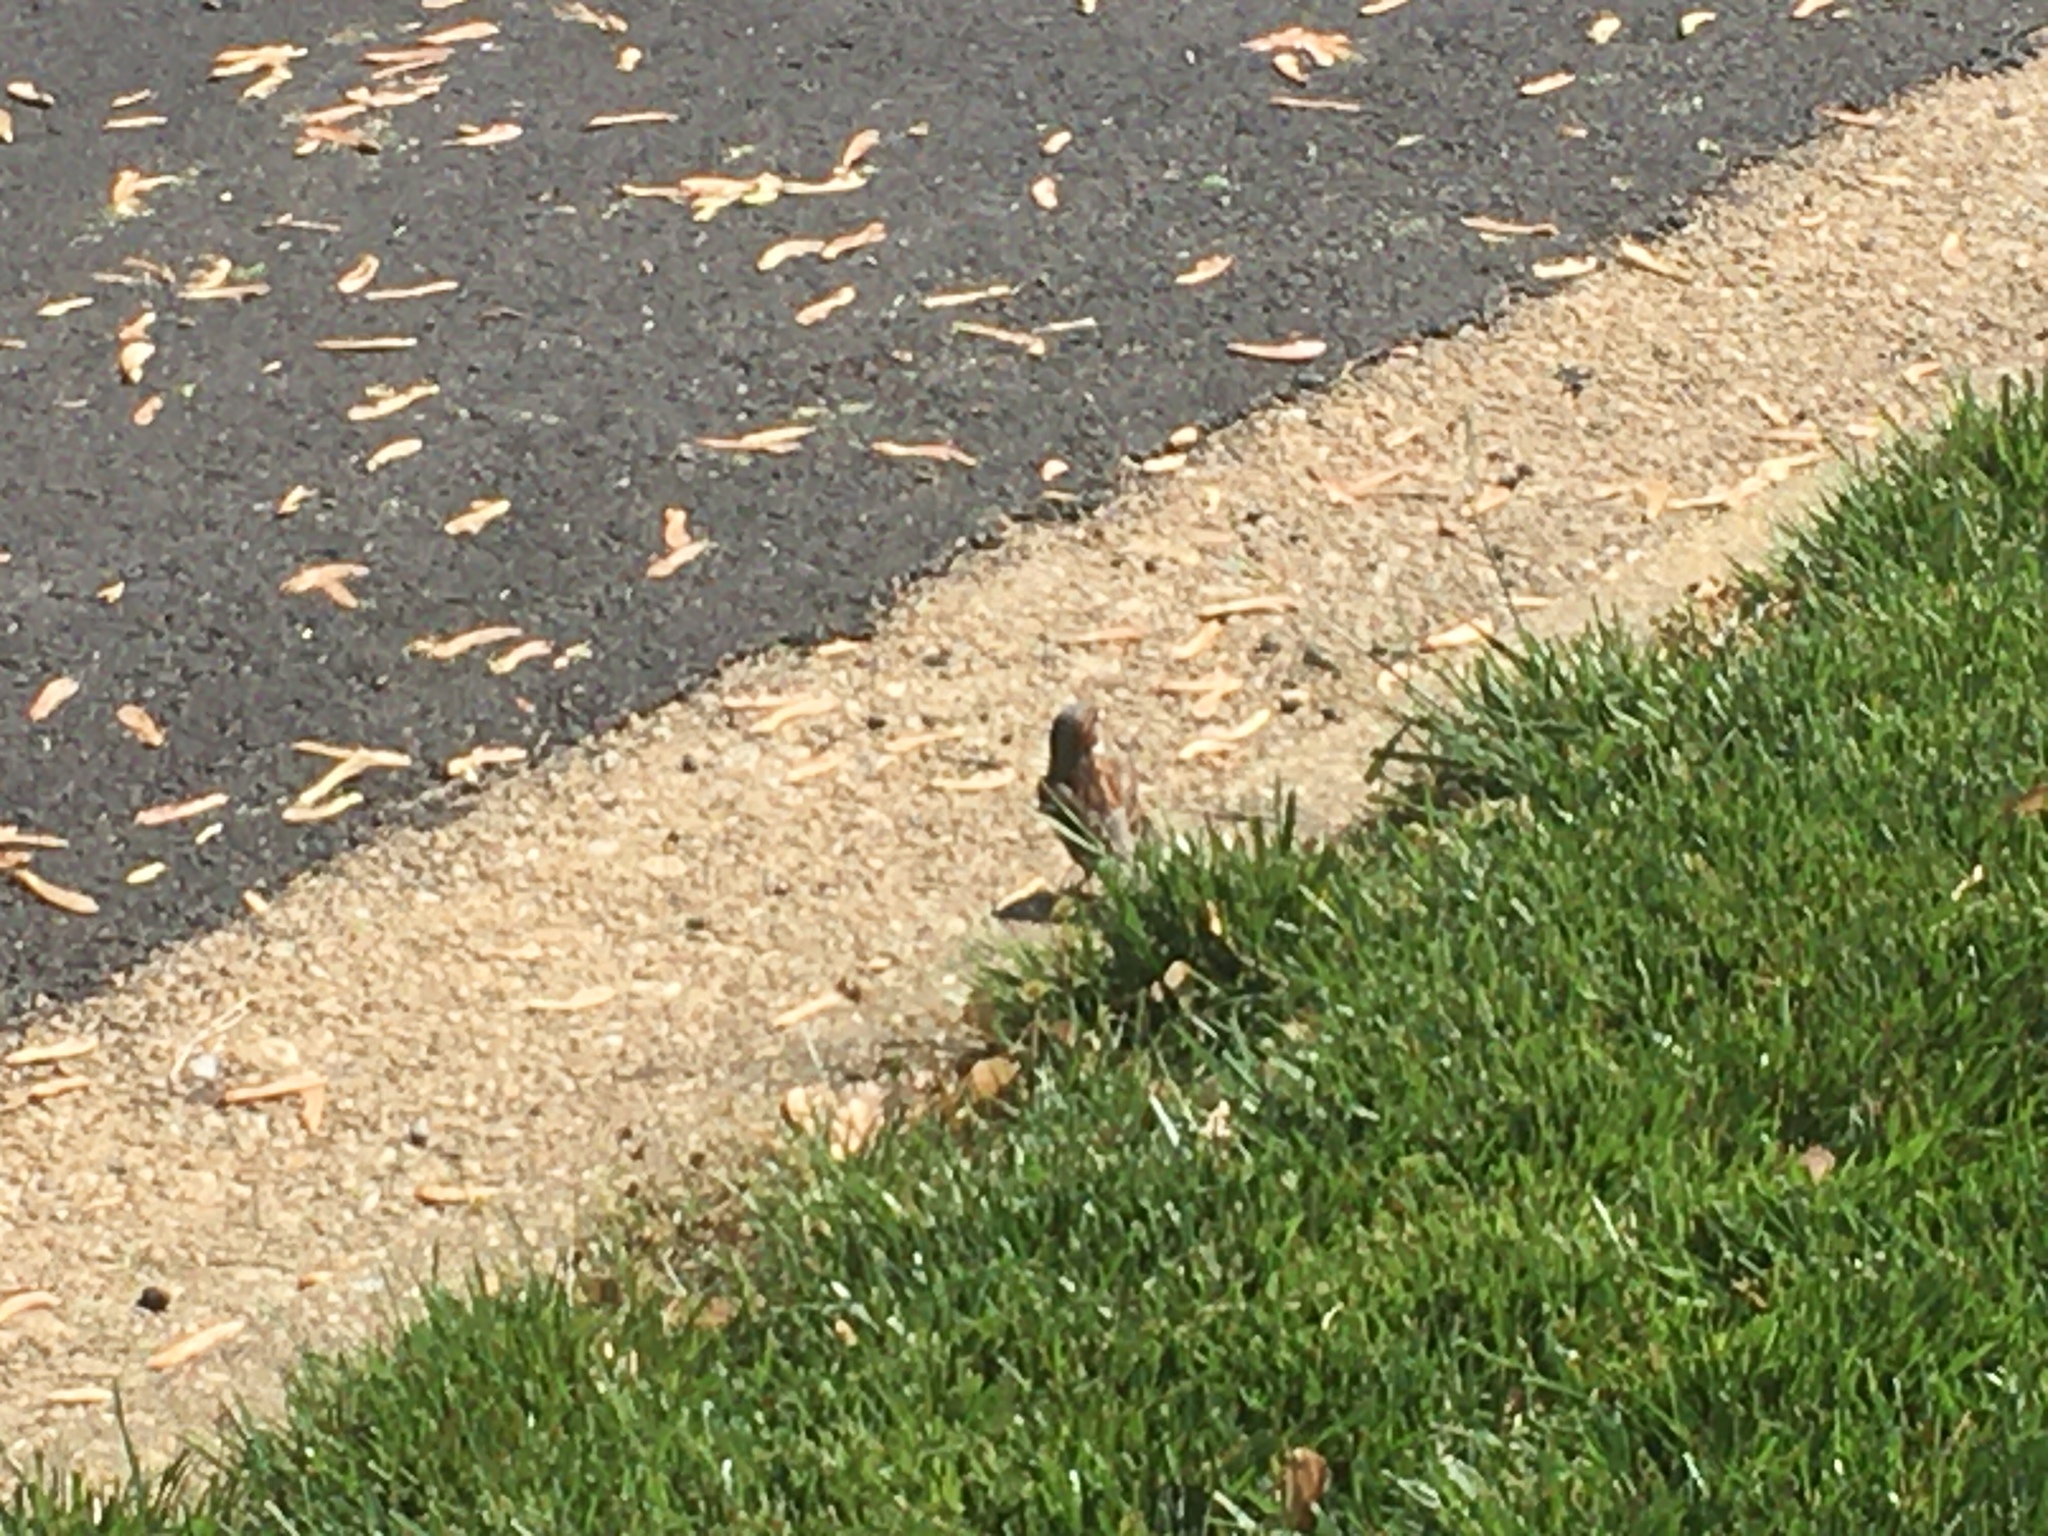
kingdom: Animalia
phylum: Chordata
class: Aves
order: Passeriformes
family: Passeridae
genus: Passer
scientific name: Passer domesticus
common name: House sparrow
